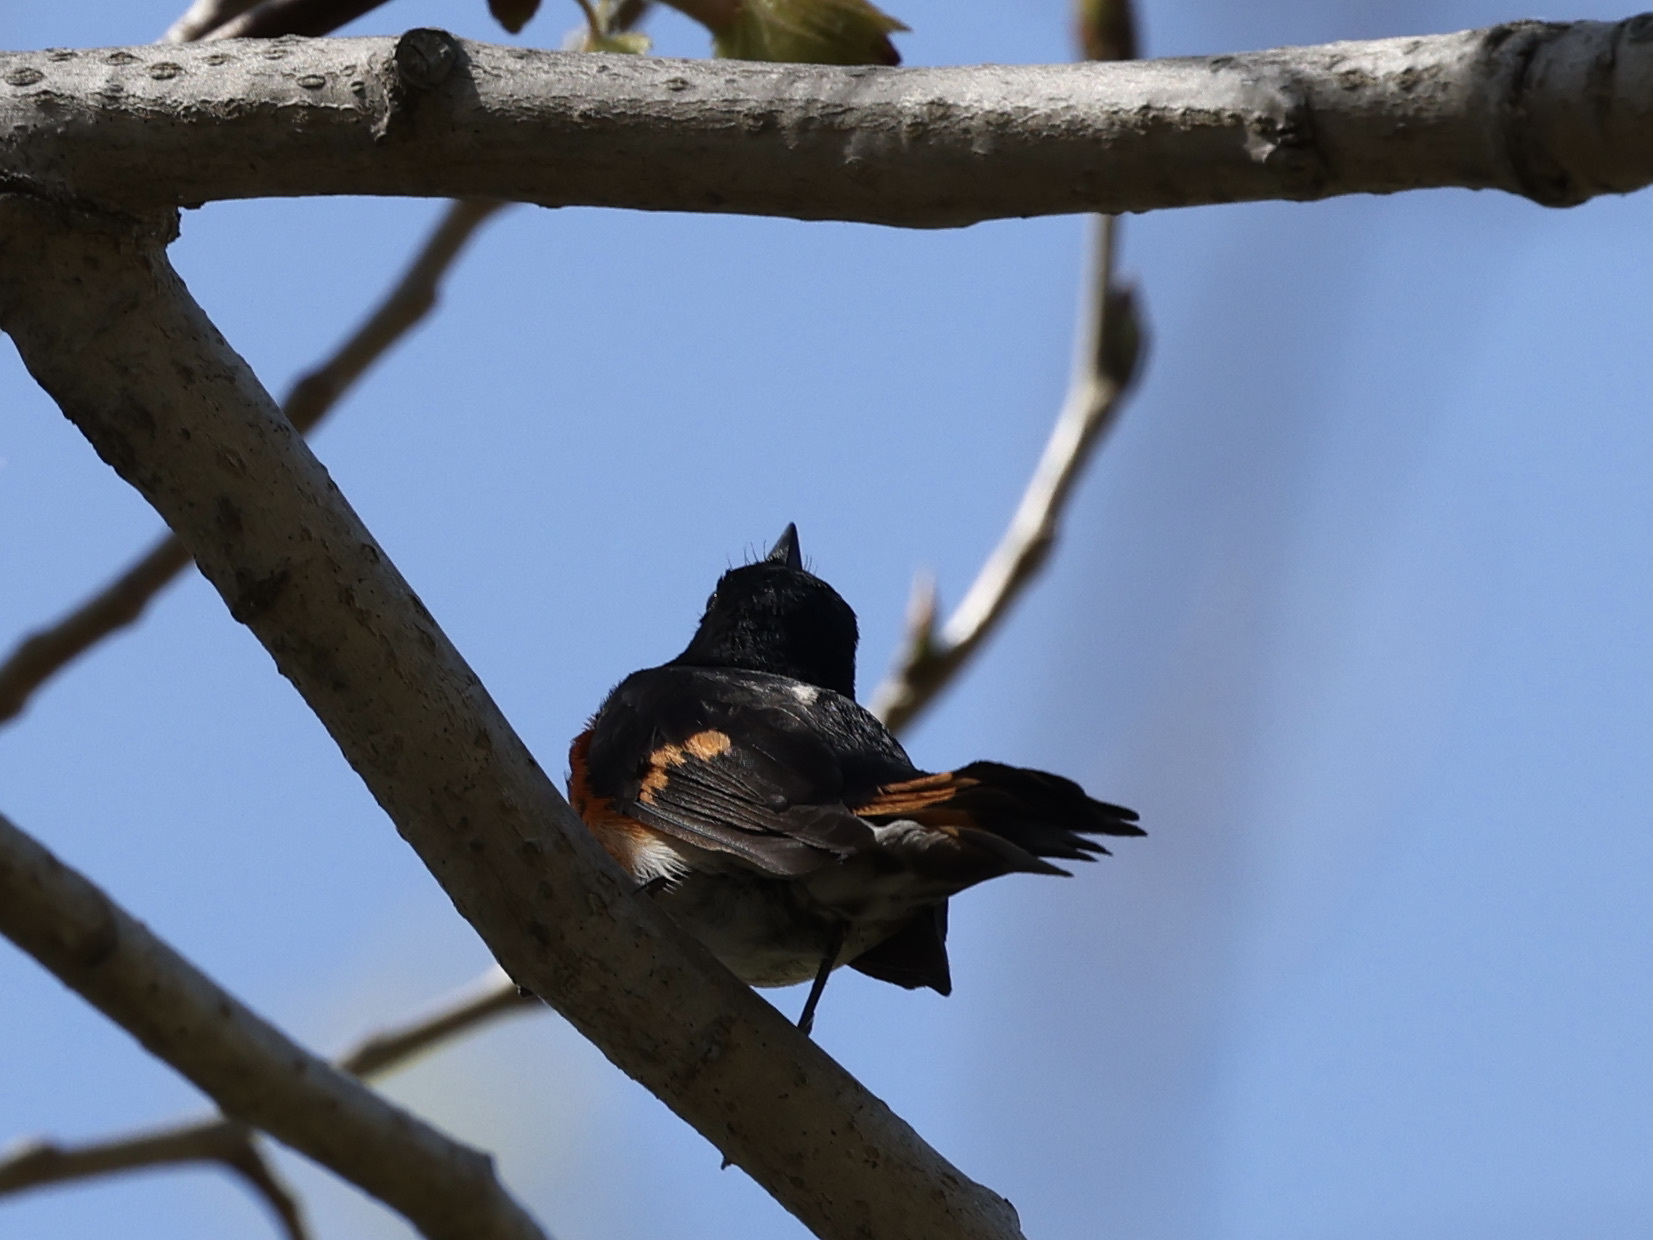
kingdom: Animalia
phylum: Chordata
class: Aves
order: Passeriformes
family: Parulidae
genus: Setophaga
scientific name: Setophaga ruticilla
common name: American redstart
